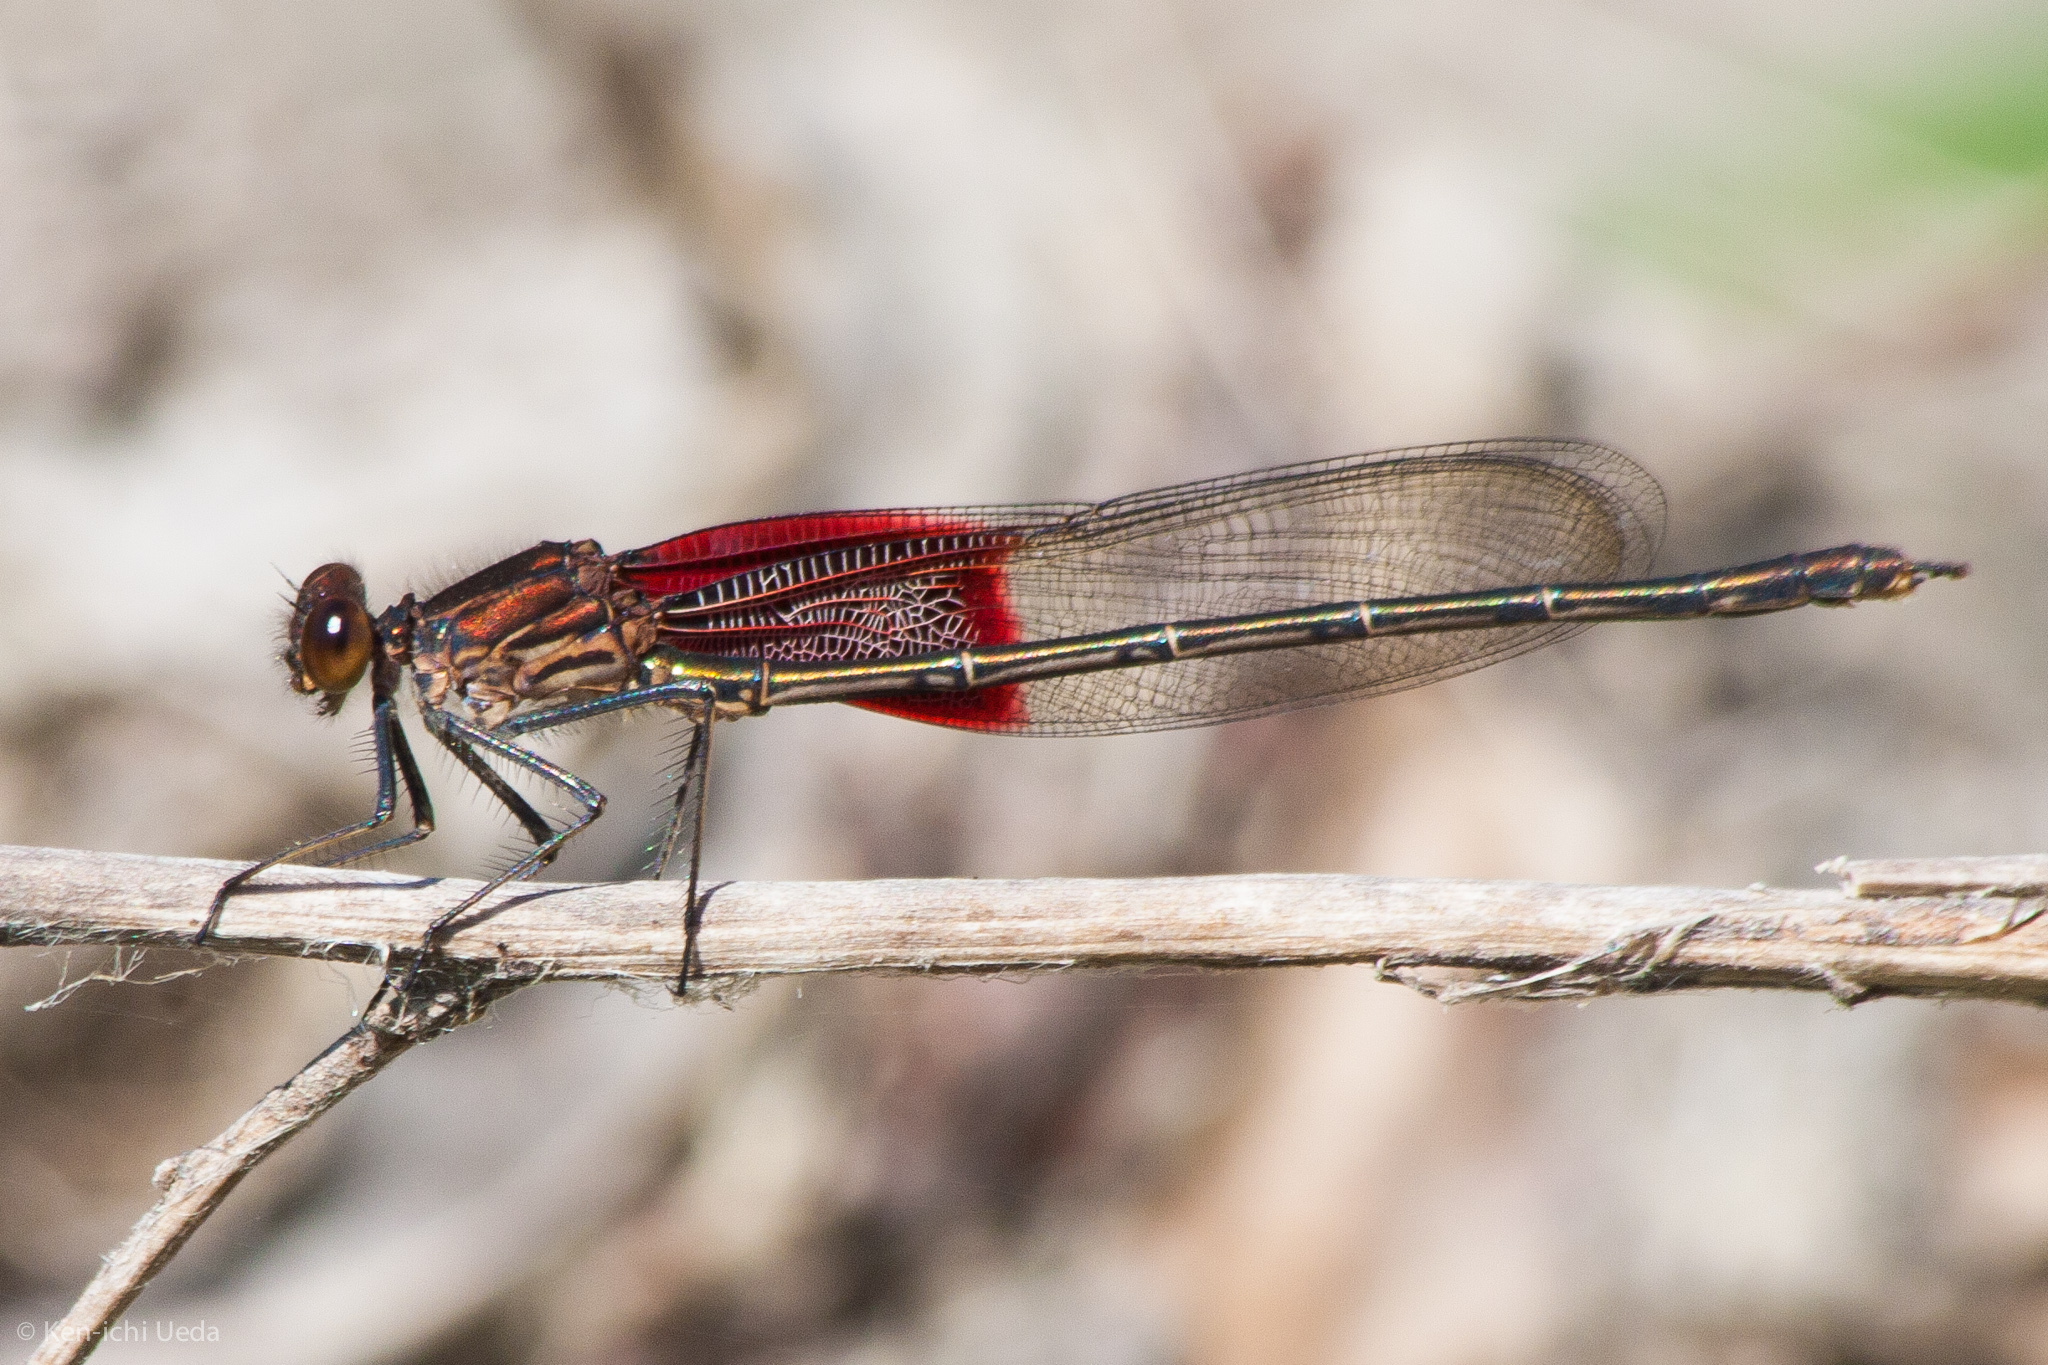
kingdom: Animalia
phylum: Arthropoda
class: Insecta
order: Odonata
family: Calopterygidae
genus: Hetaerina
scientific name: Hetaerina americana
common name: American rubyspot
